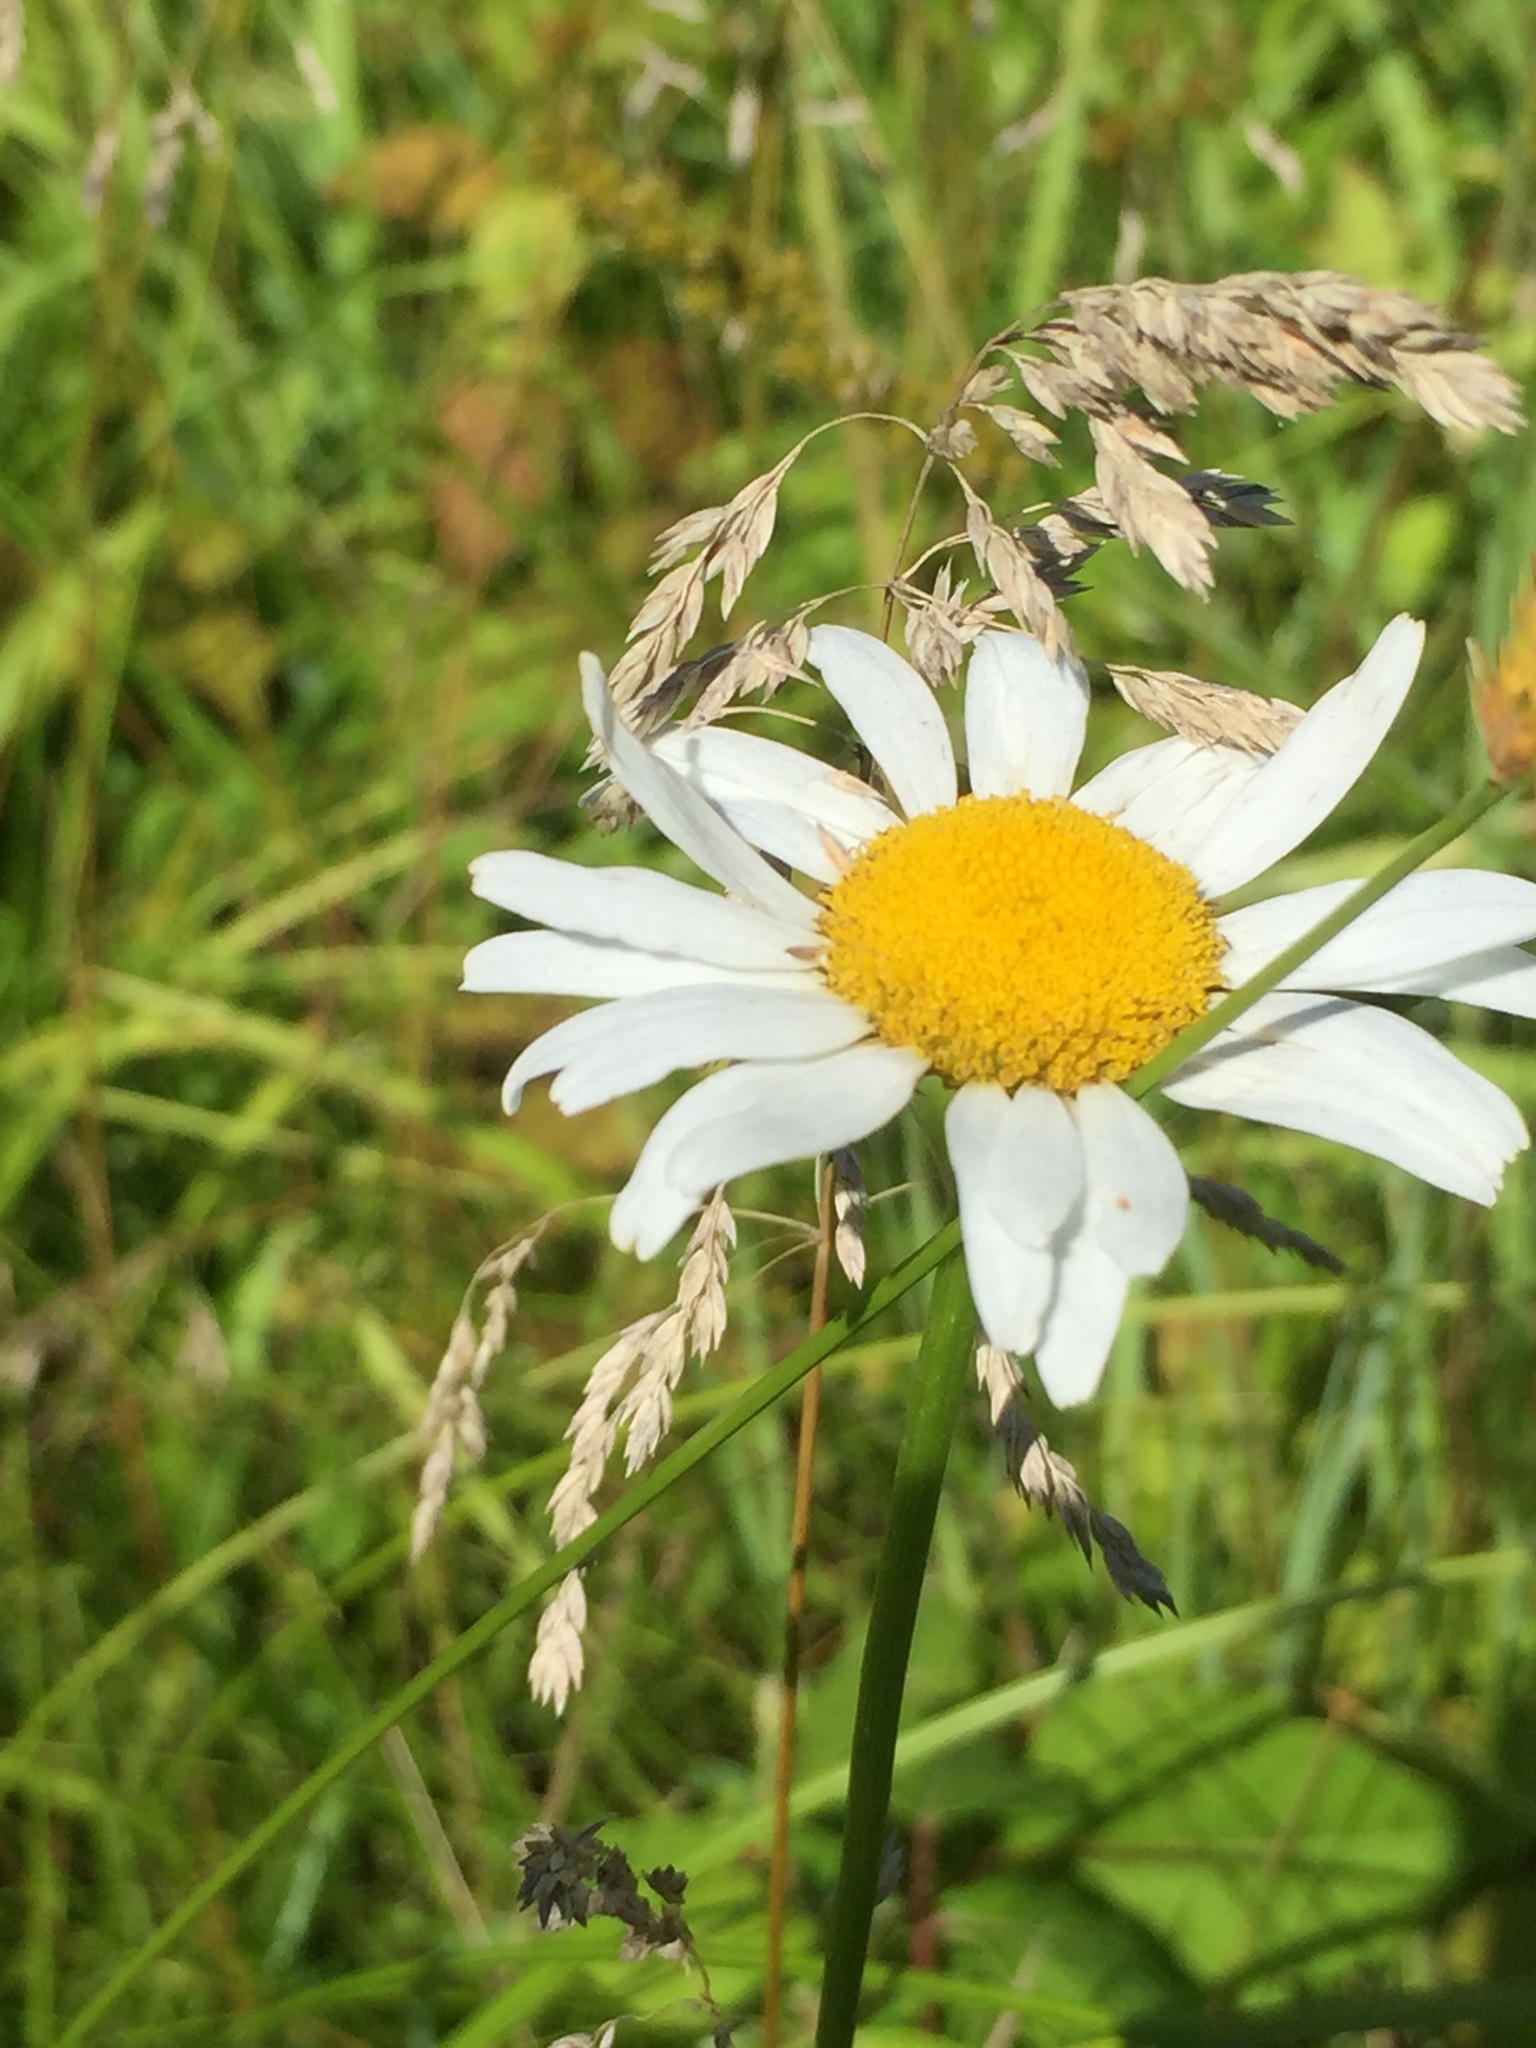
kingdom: Plantae
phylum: Tracheophyta
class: Magnoliopsida
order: Asterales
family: Asteraceae
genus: Leucanthemum
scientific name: Leucanthemum vulgare
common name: Oxeye daisy
